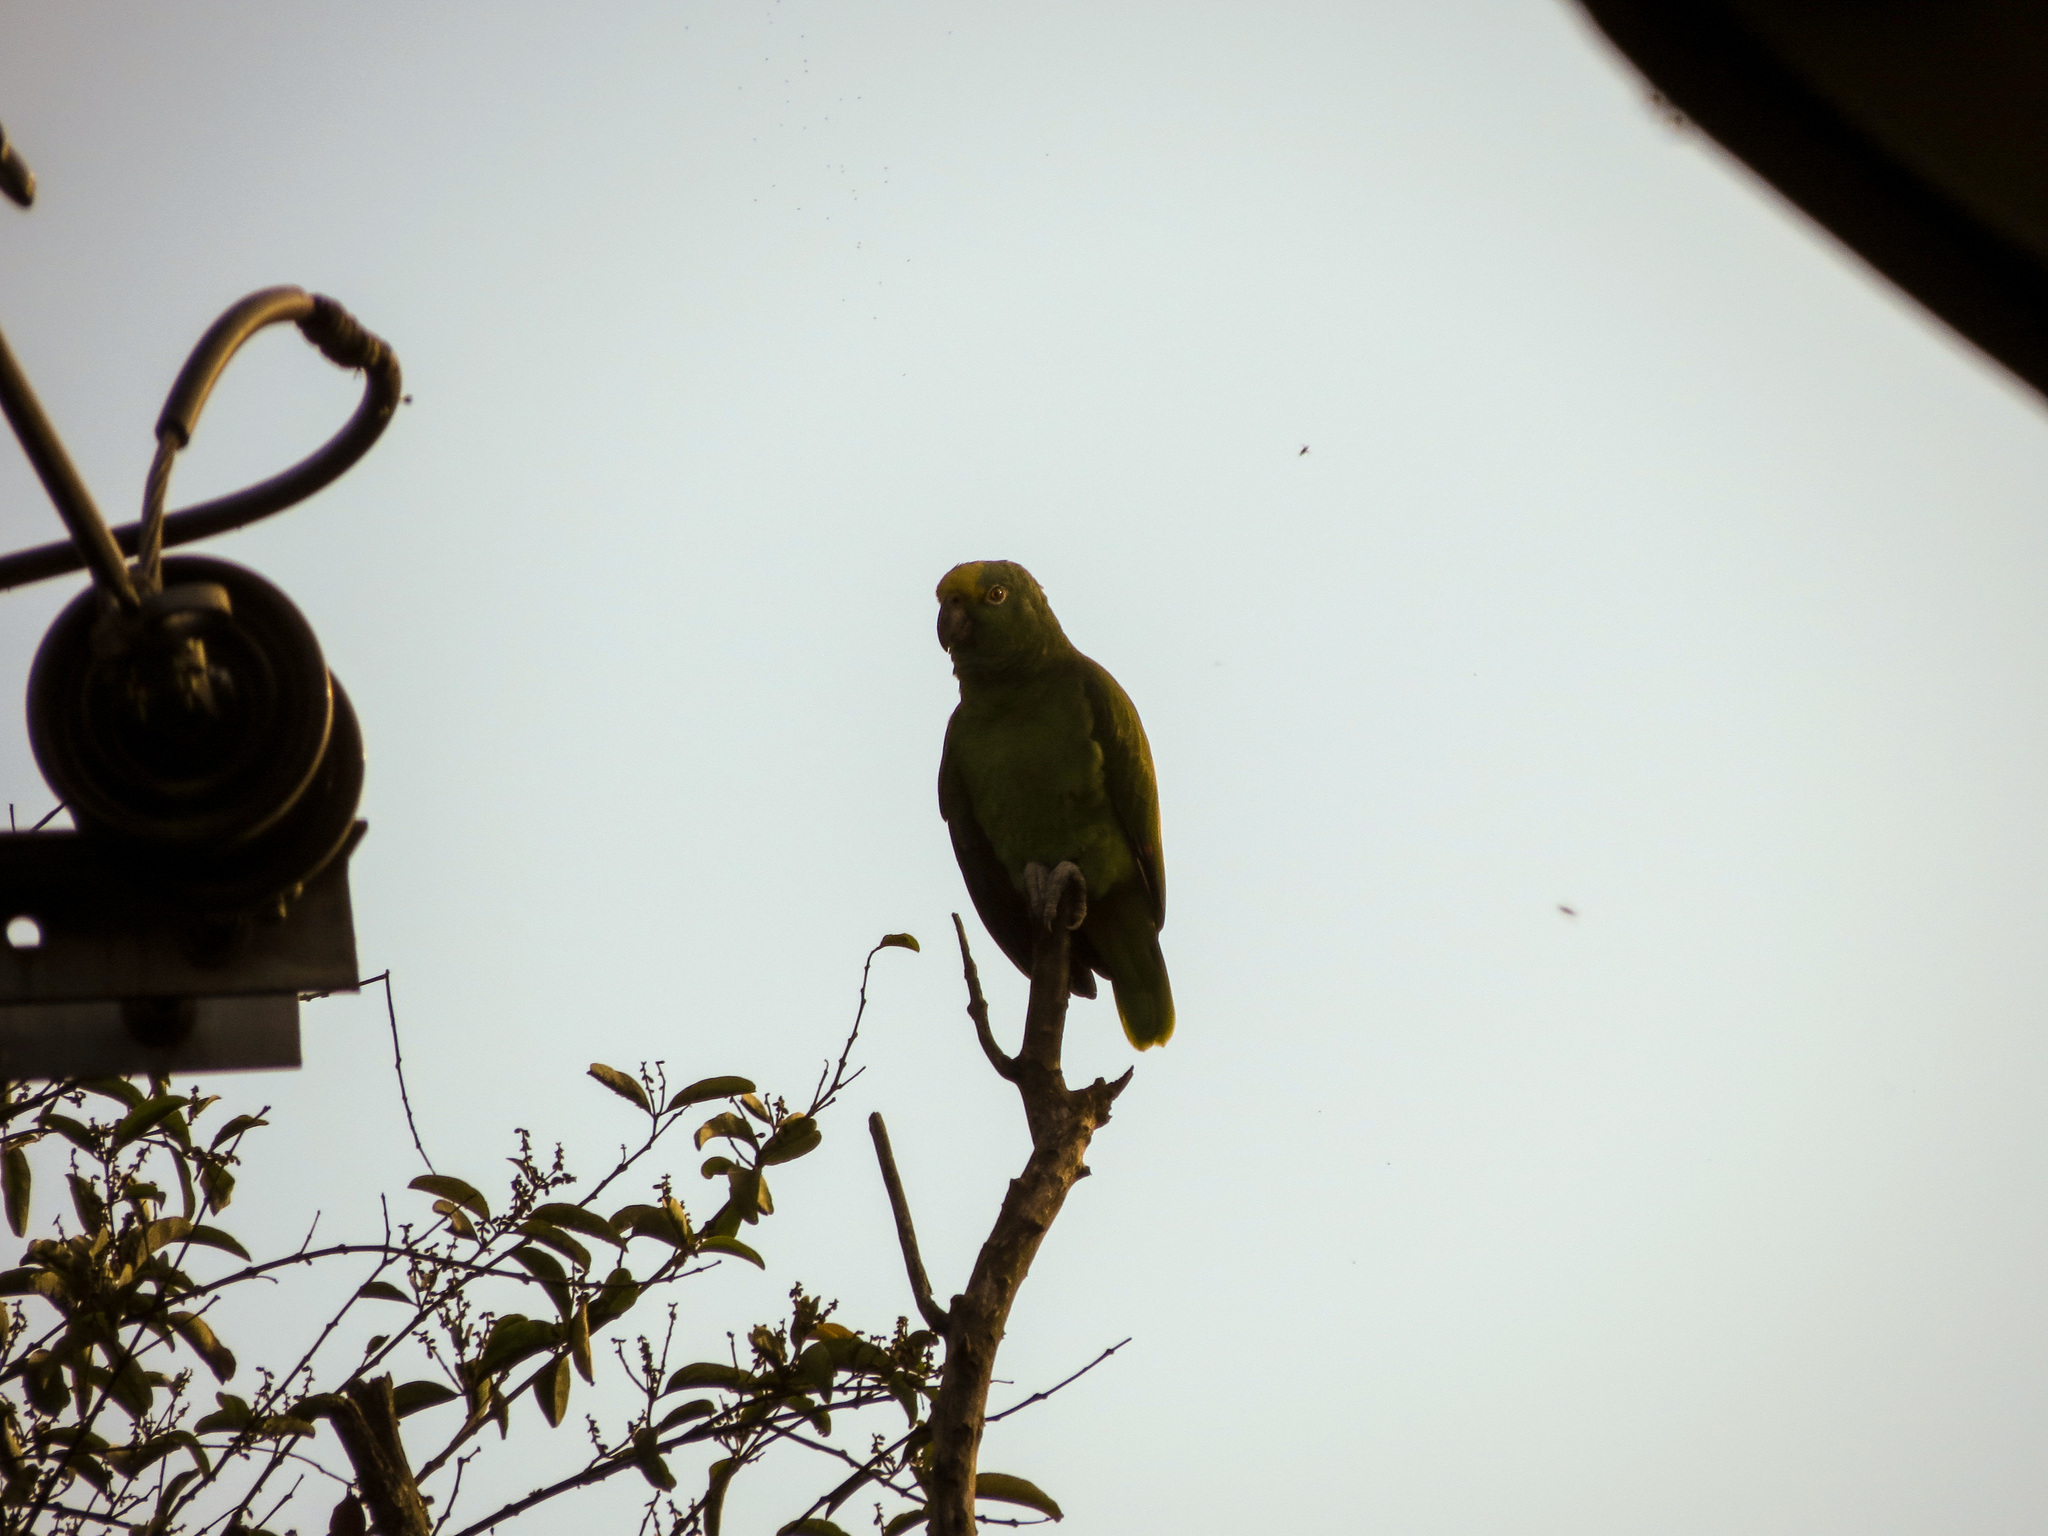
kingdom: Animalia
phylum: Chordata
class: Aves
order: Psittaciformes
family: Psittacidae
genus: Amazona
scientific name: Amazona ochrocephala
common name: Yellow-crowned amazon
